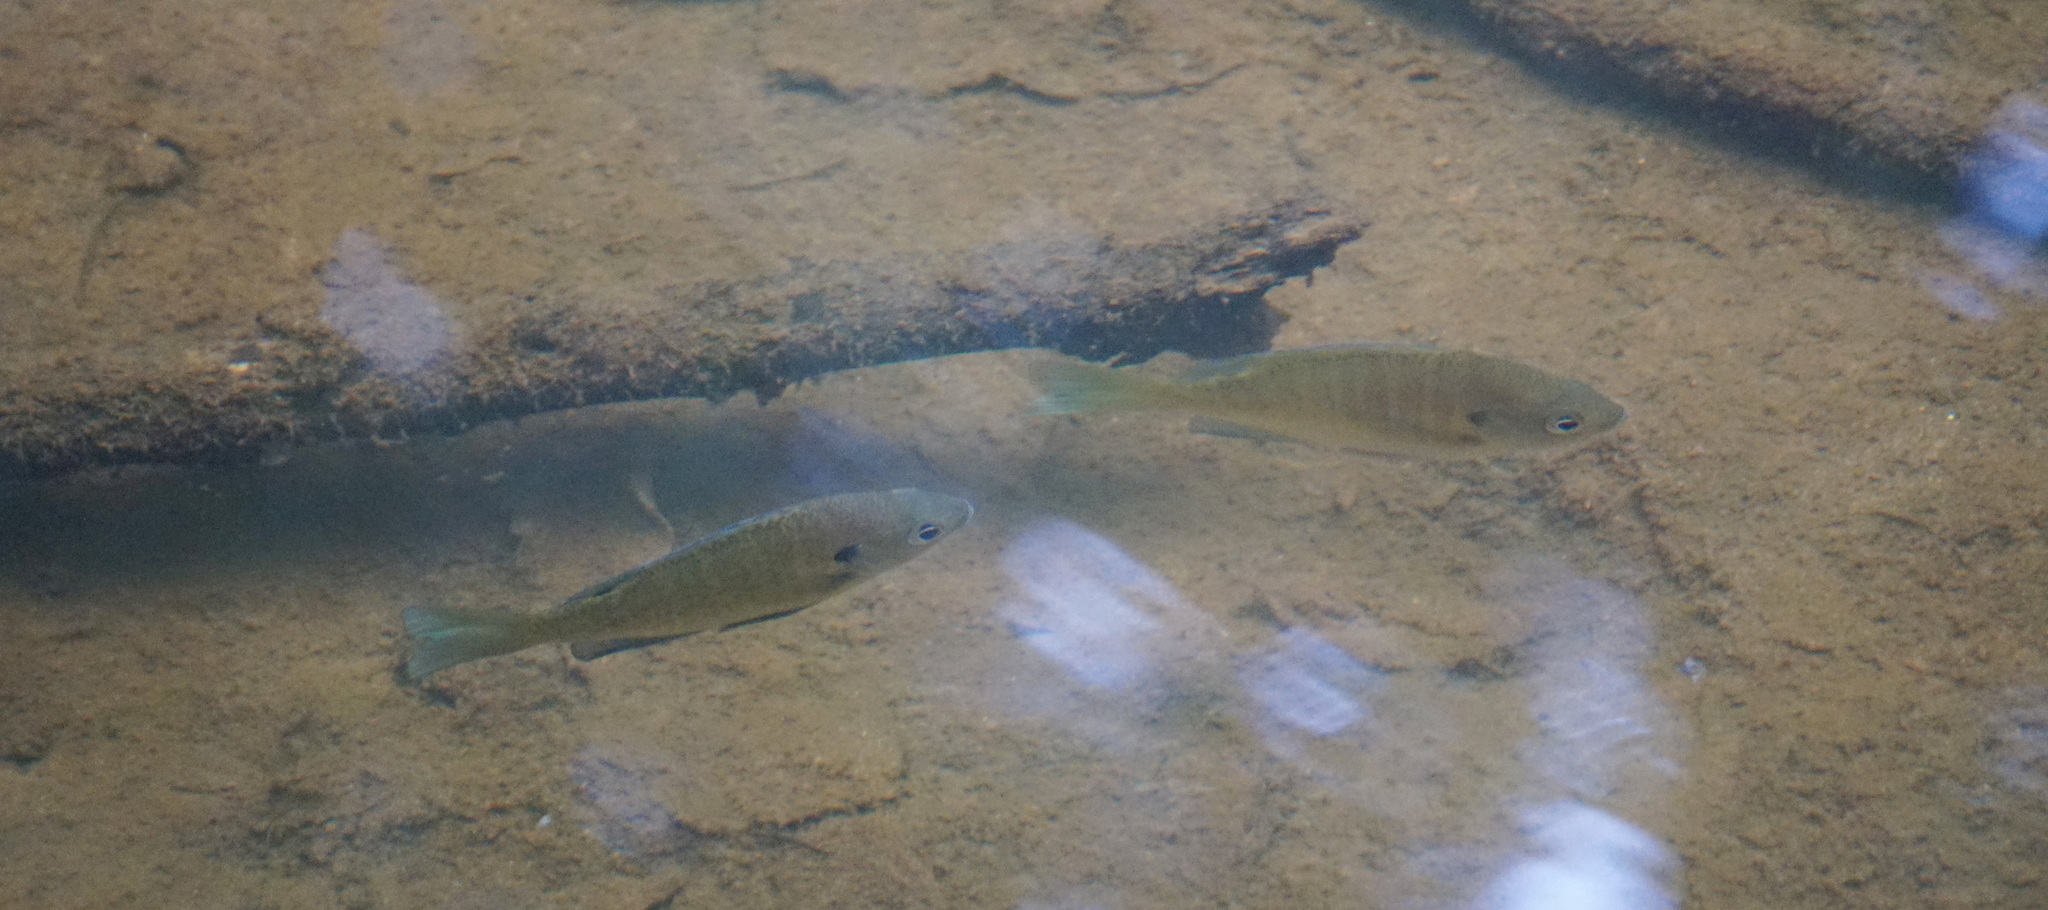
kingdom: Animalia
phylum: Chordata
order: Perciformes
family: Centrarchidae
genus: Lepomis
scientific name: Lepomis macrochirus
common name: Bluegill
